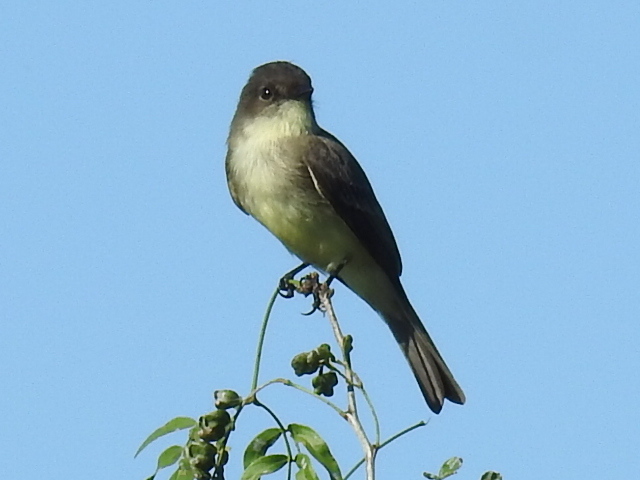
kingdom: Animalia
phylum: Chordata
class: Aves
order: Passeriformes
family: Tyrannidae
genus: Sayornis
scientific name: Sayornis phoebe
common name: Eastern phoebe
